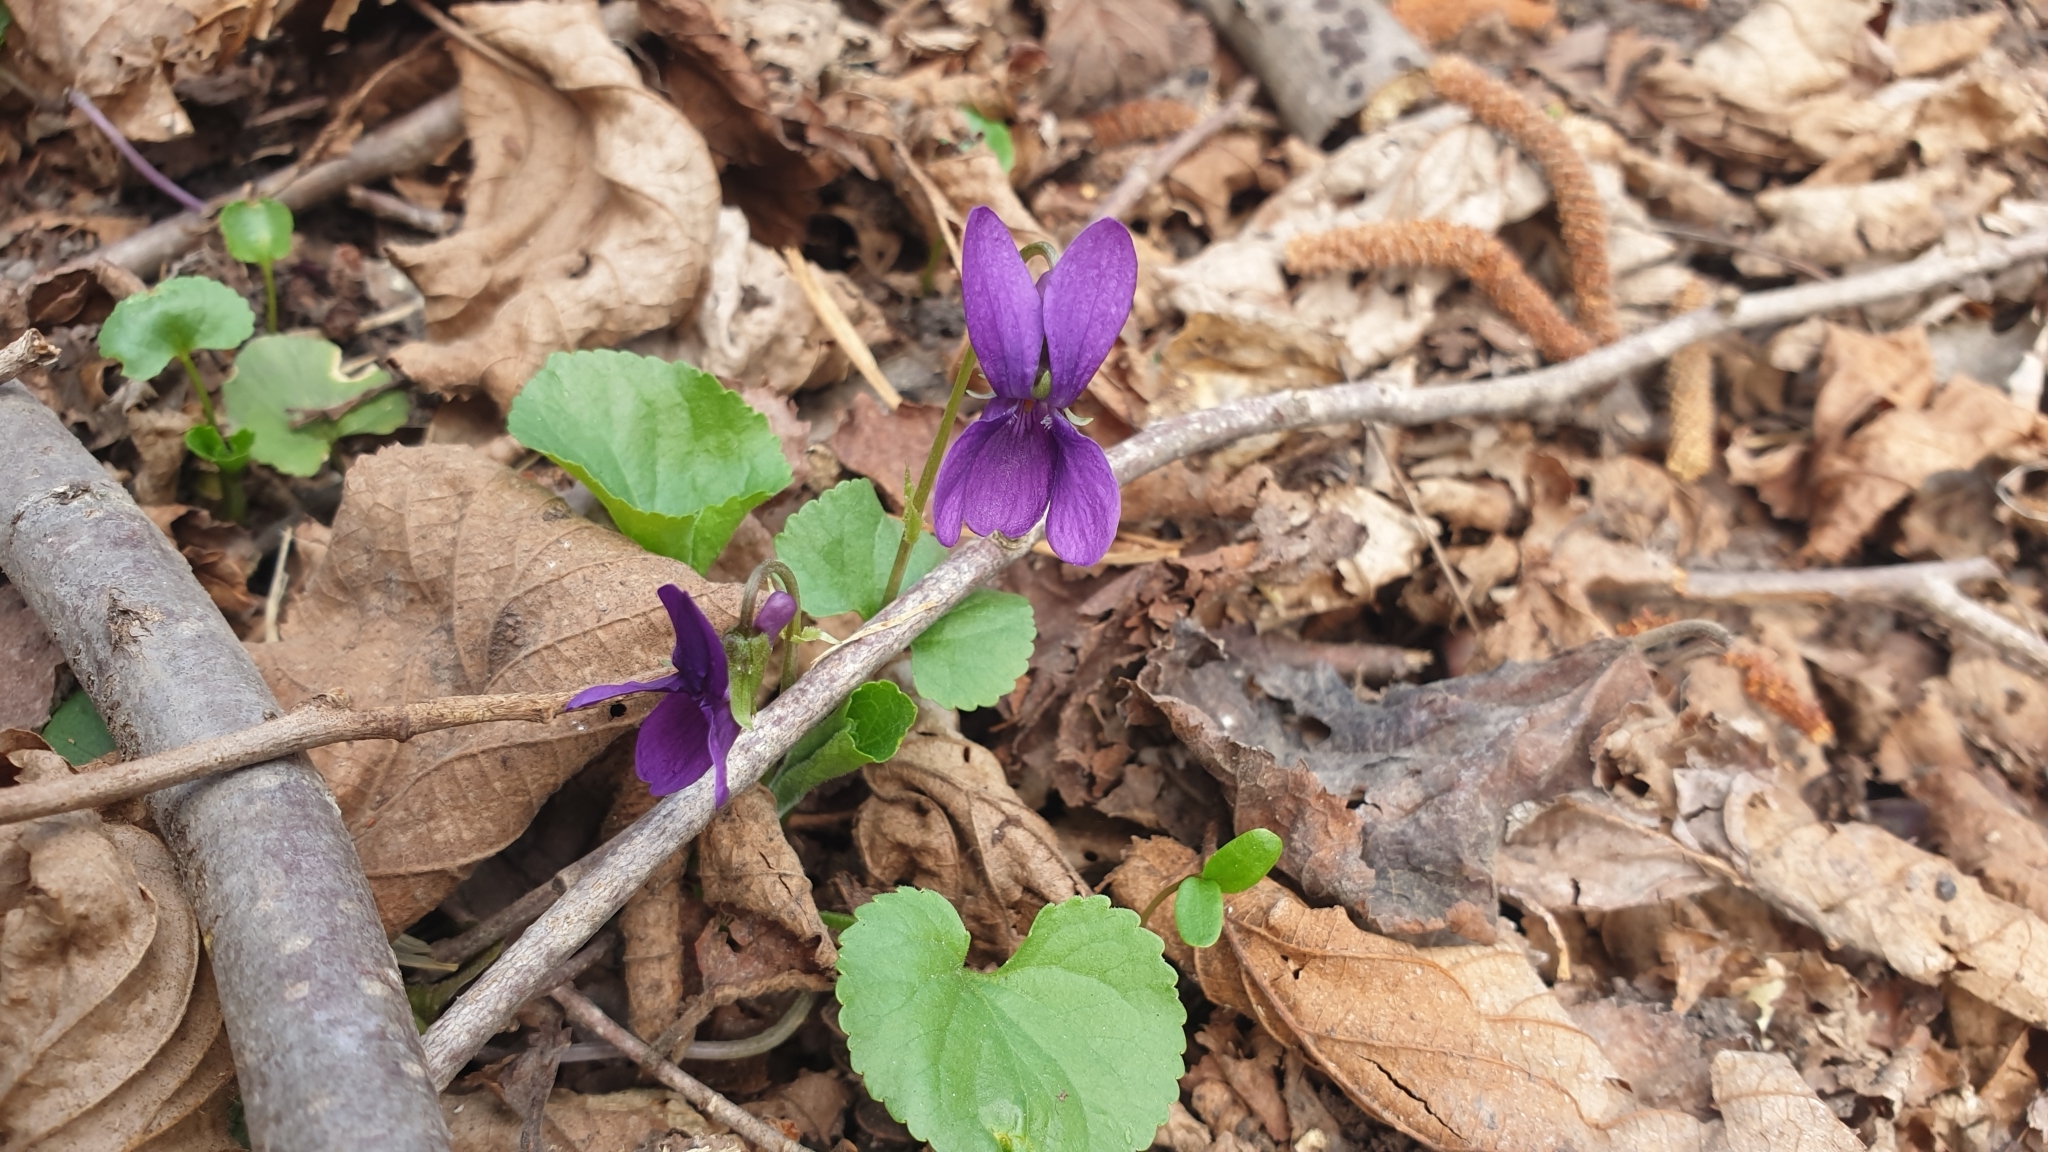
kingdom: Plantae
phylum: Tracheophyta
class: Magnoliopsida
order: Malpighiales
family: Violaceae
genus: Viola
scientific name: Viola odorata
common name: Sweet violet
